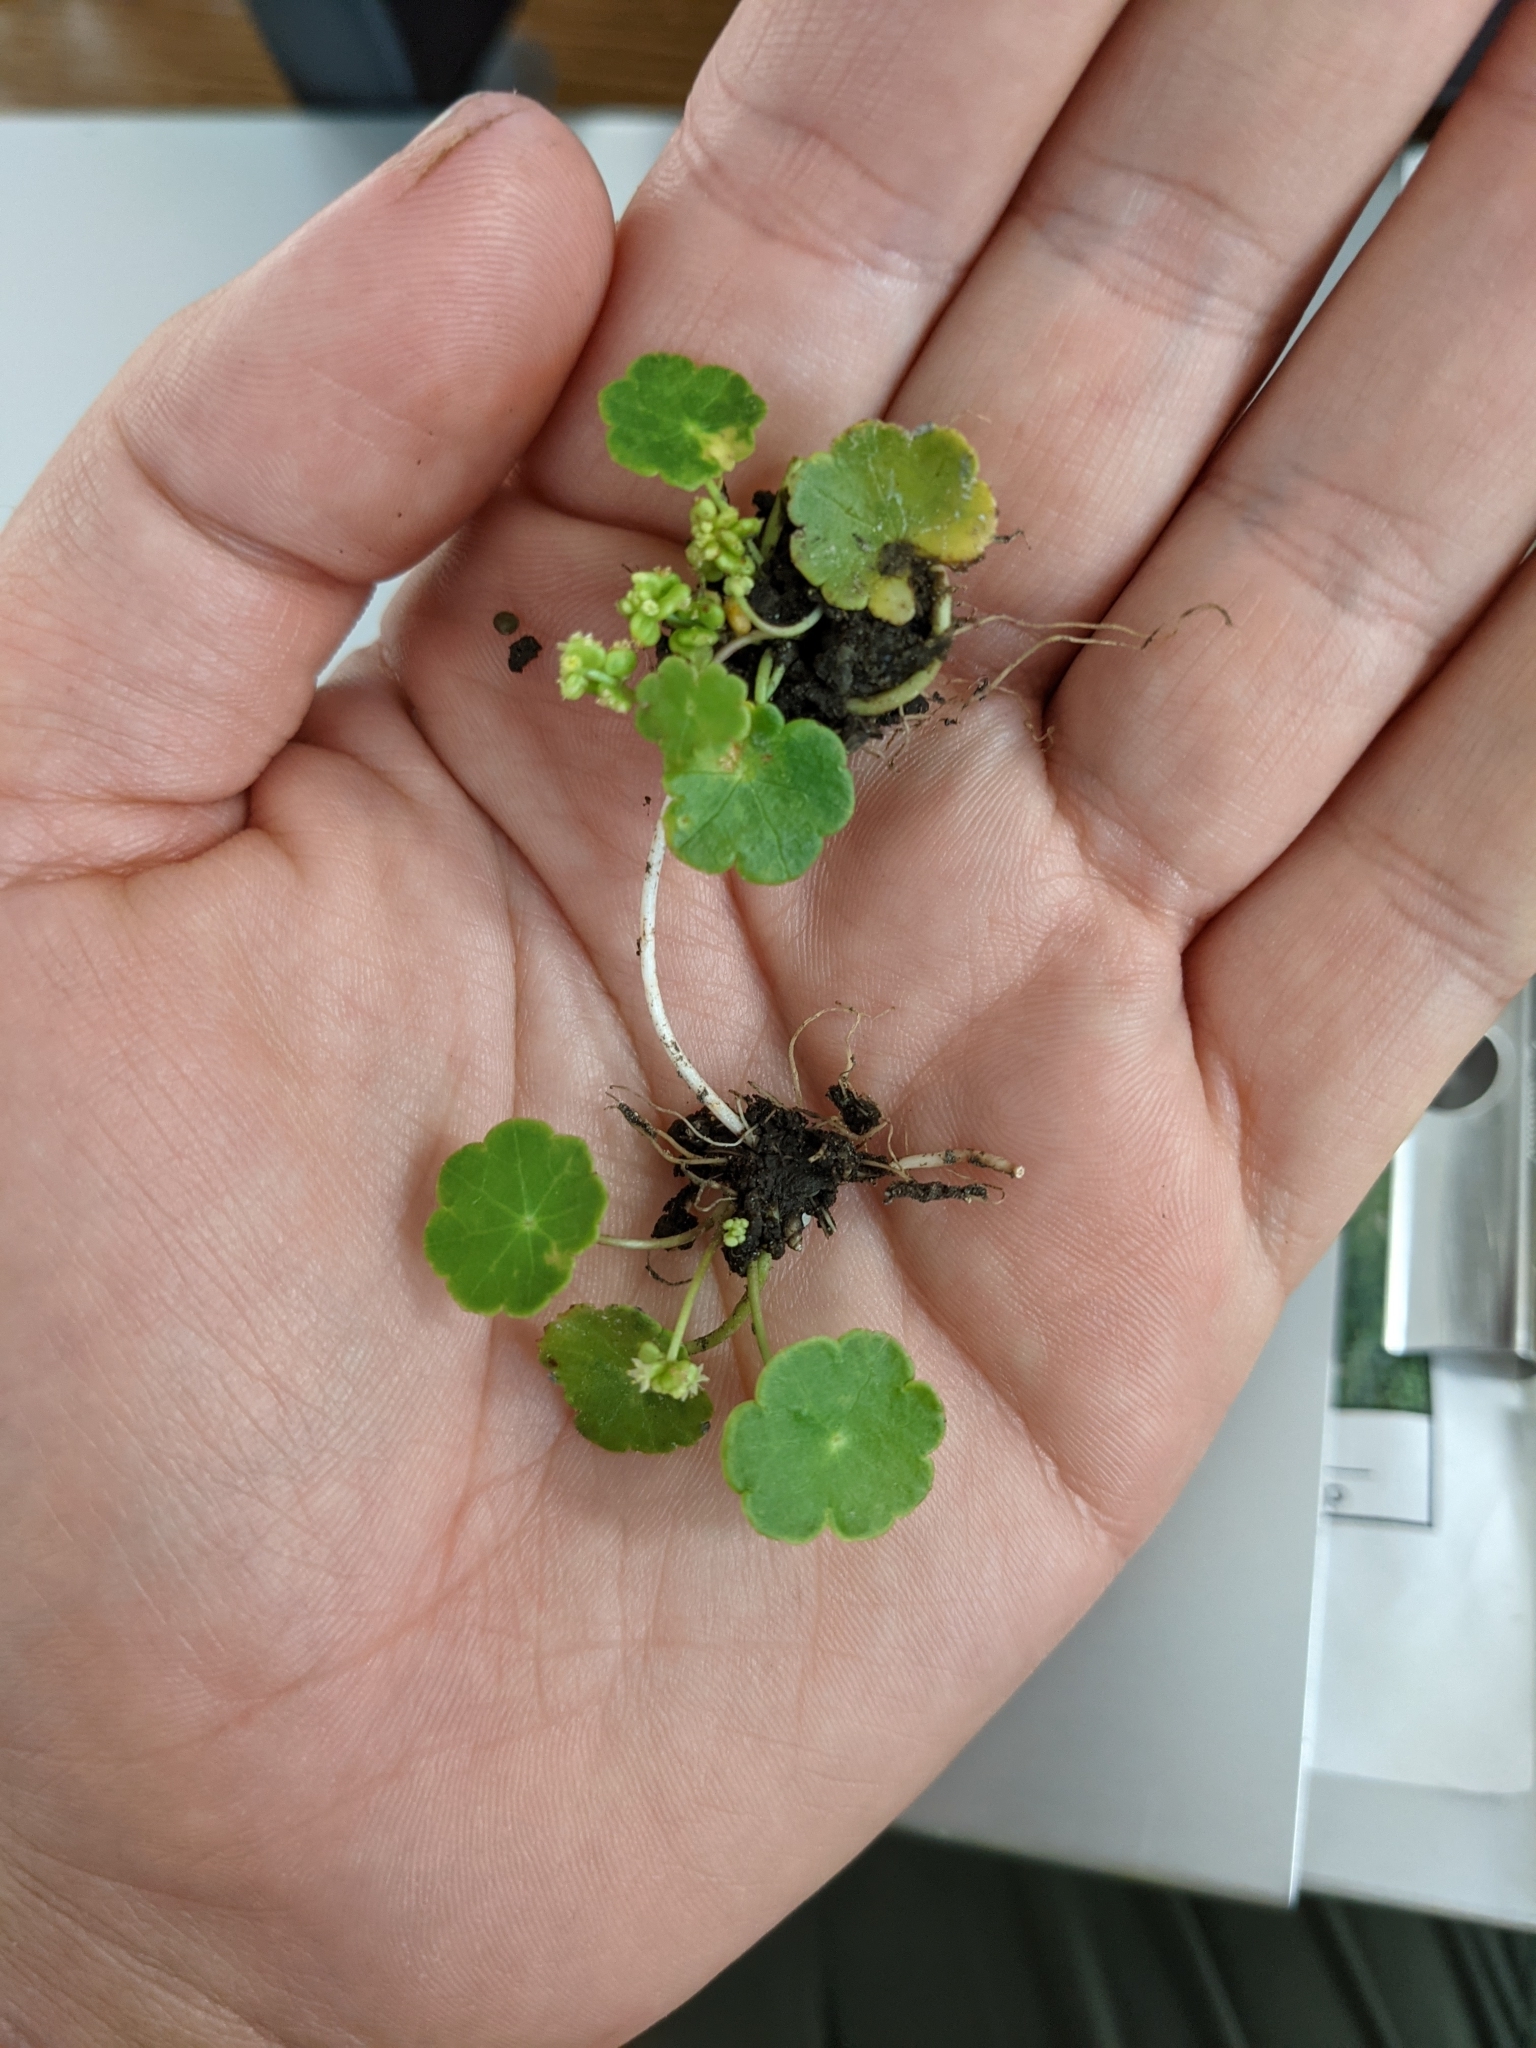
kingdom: Plantae
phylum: Tracheophyta
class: Magnoliopsida
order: Apiales
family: Araliaceae
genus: Hydrocotyle
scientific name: Hydrocotyle verticillata
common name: Whorled marshpennywort
